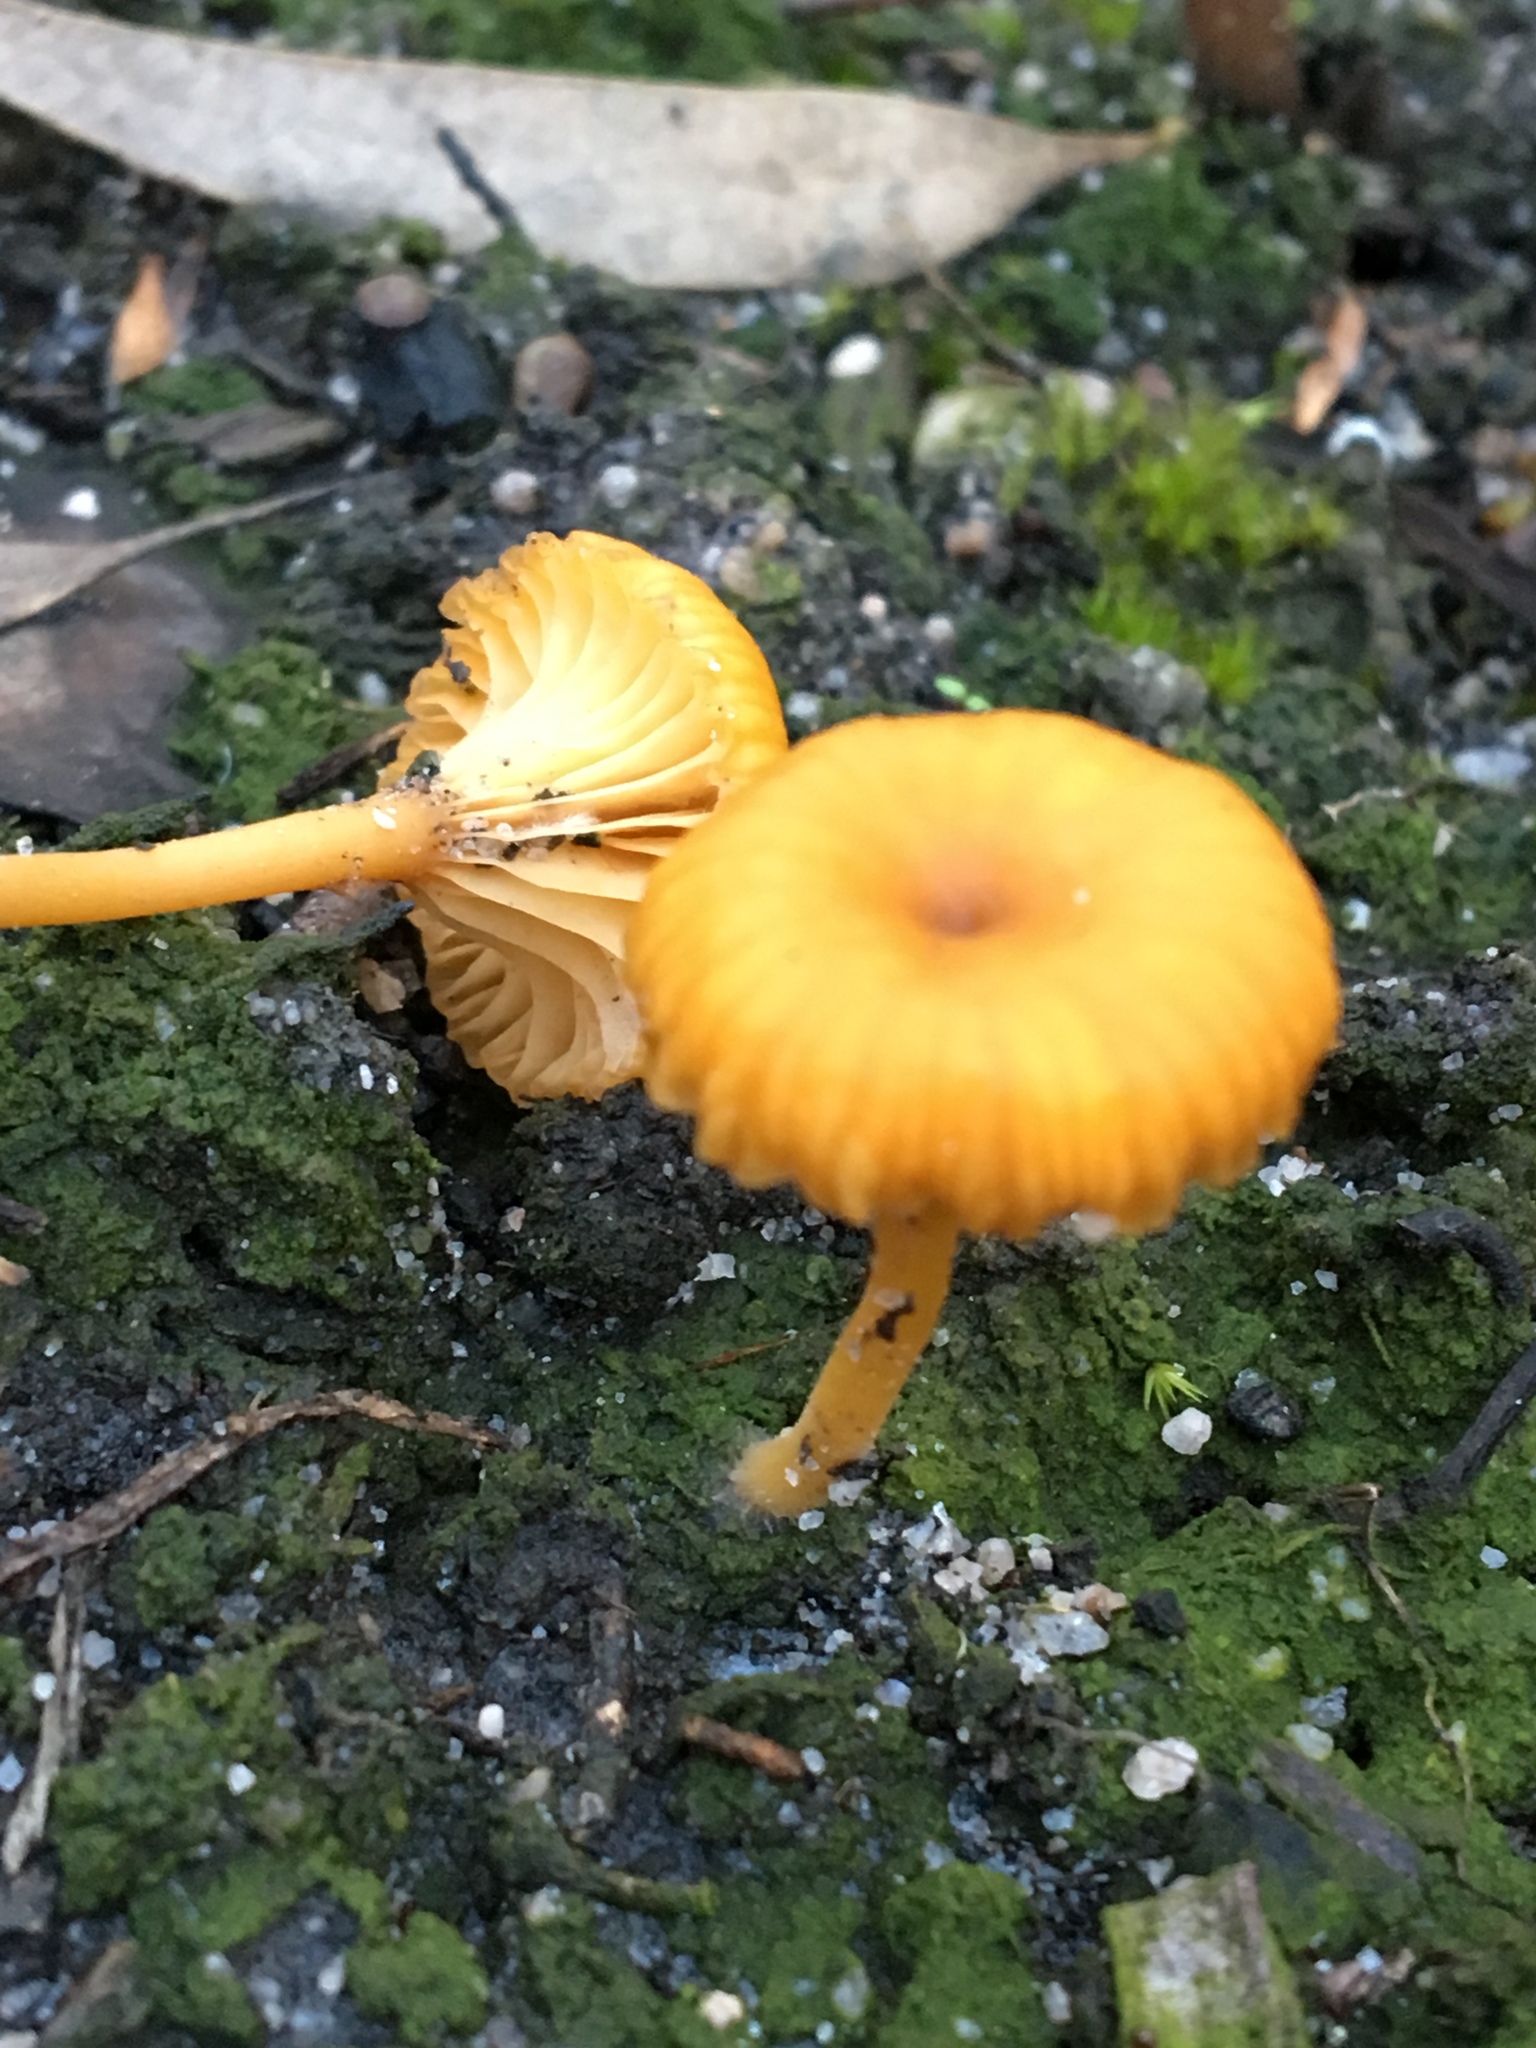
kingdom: Fungi
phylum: Basidiomycota
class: Agaricomycetes
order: Agaricales
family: Hygrophoraceae
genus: Lichenomphalia
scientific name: Lichenomphalia chromacea
